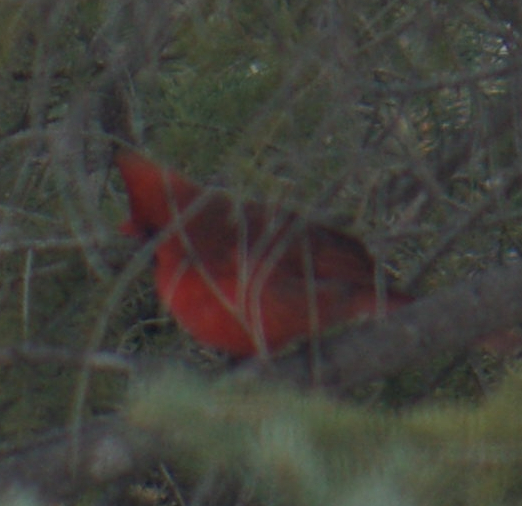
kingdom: Animalia
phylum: Chordata
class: Aves
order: Passeriformes
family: Cardinalidae
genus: Cardinalis
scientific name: Cardinalis cardinalis
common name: Northern cardinal
